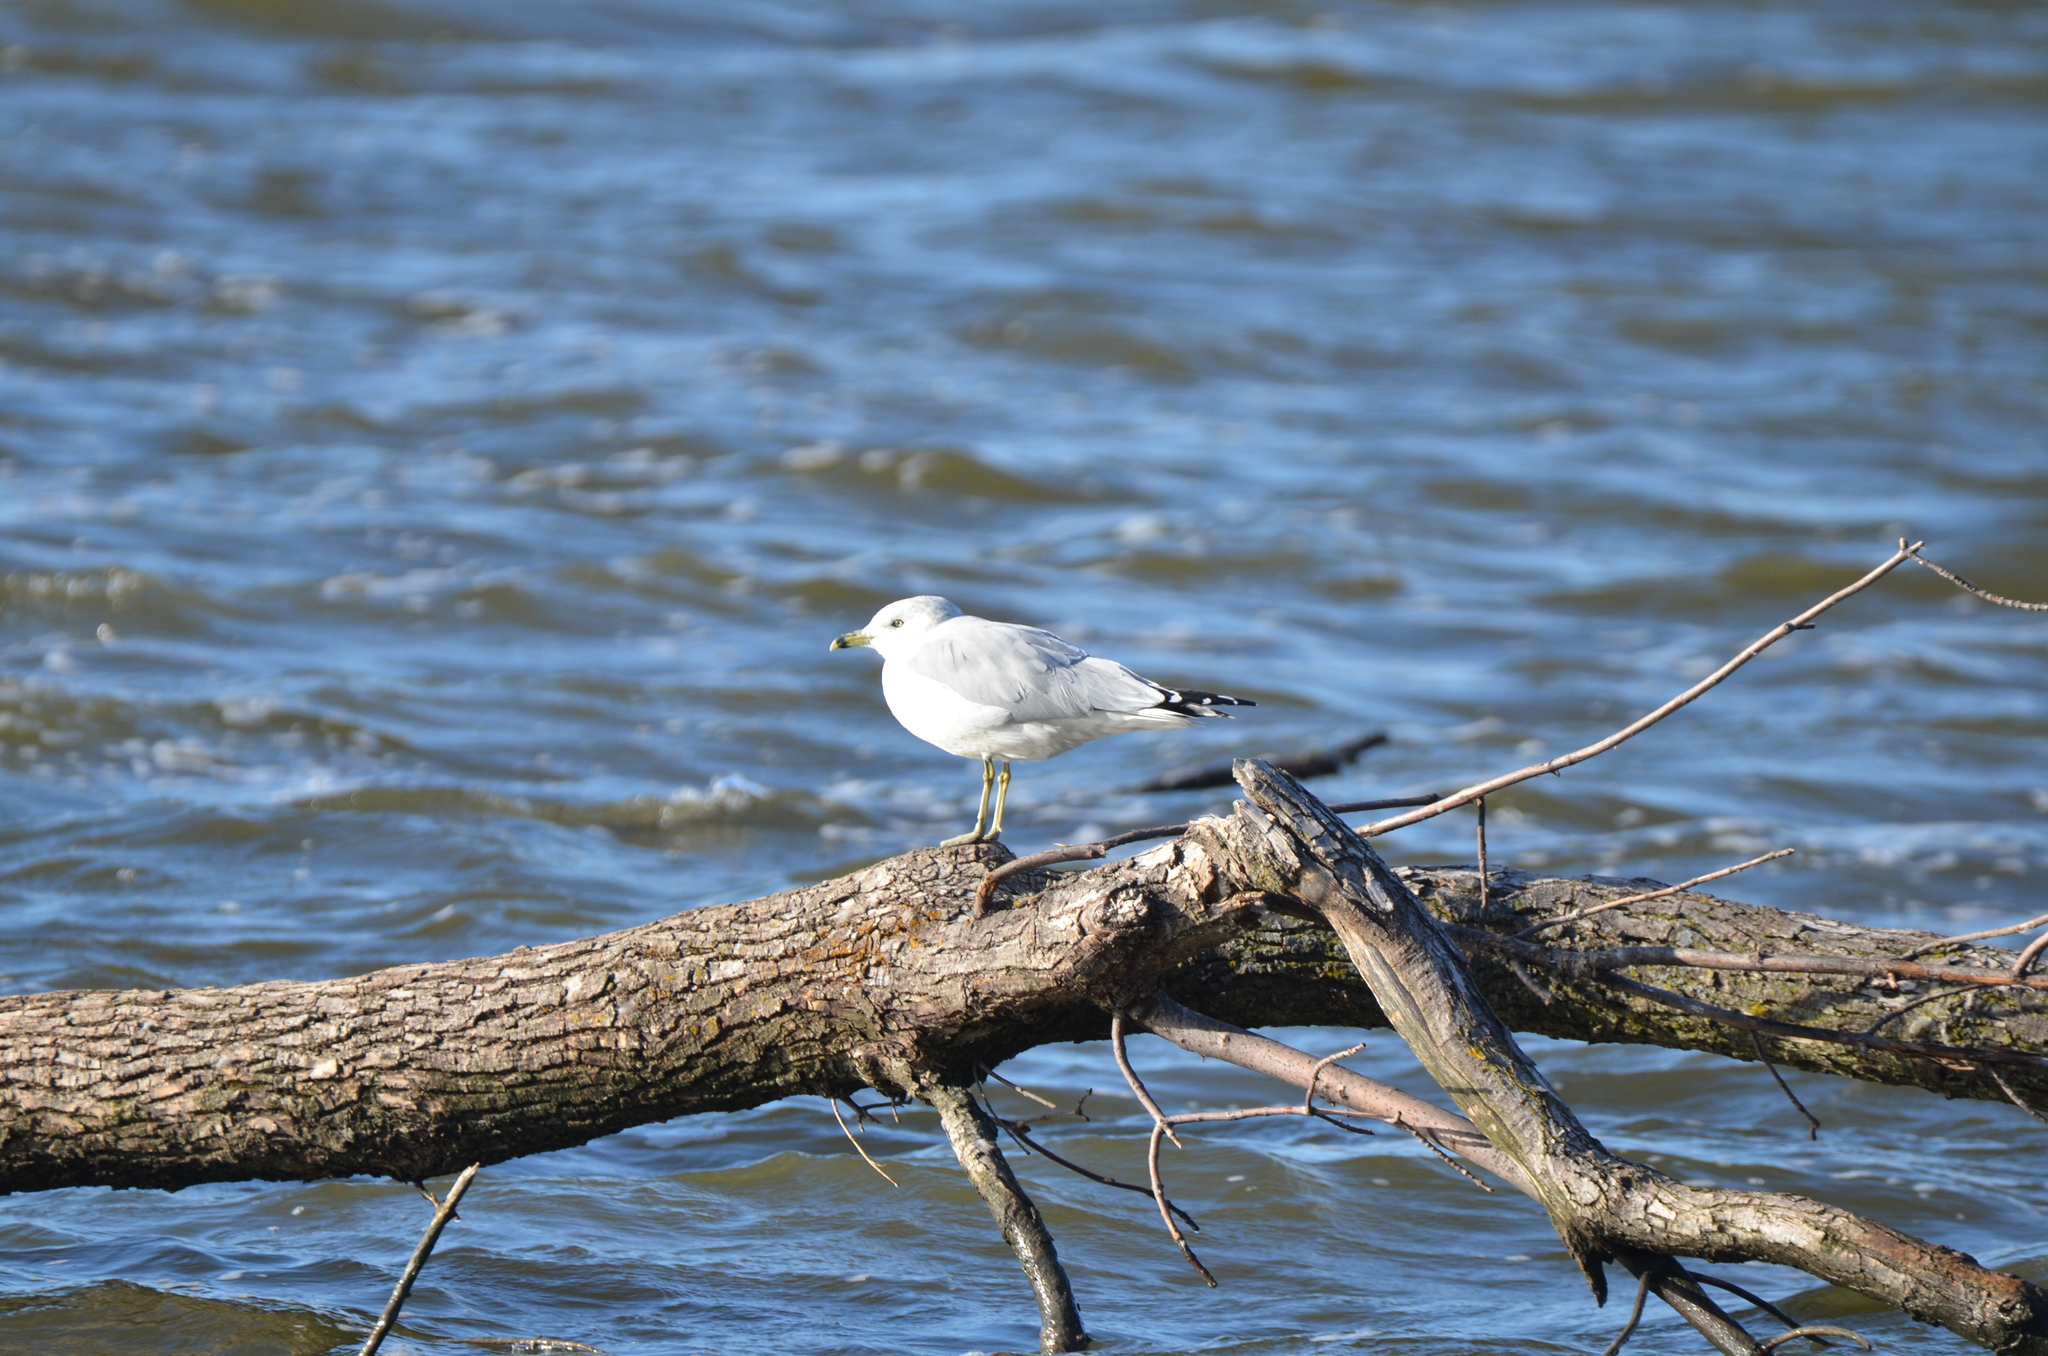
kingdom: Animalia
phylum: Chordata
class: Aves
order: Charadriiformes
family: Laridae
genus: Larus
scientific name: Larus delawarensis
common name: Ring-billed gull
